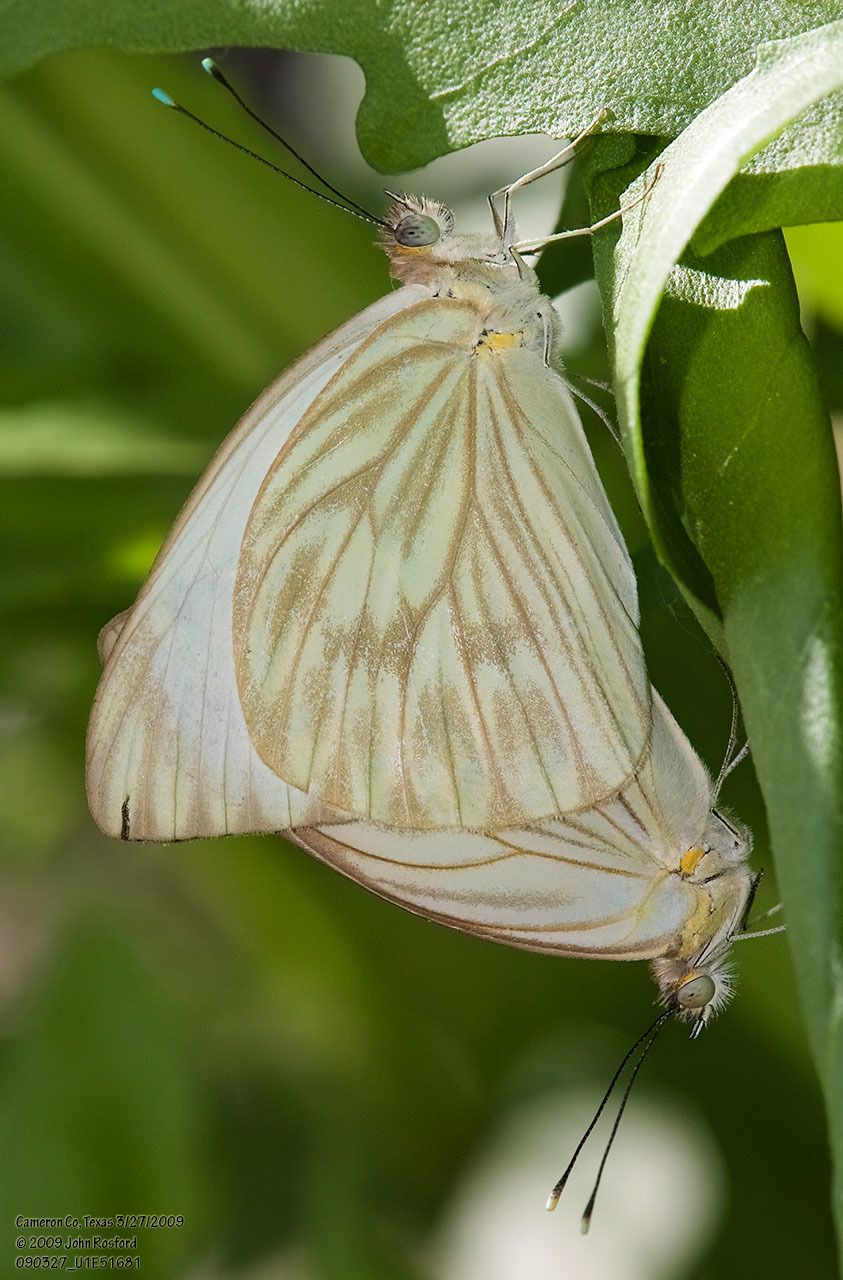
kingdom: Animalia
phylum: Arthropoda
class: Insecta
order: Lepidoptera
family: Pieridae
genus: Ascia
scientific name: Ascia monuste
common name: Great southern white
